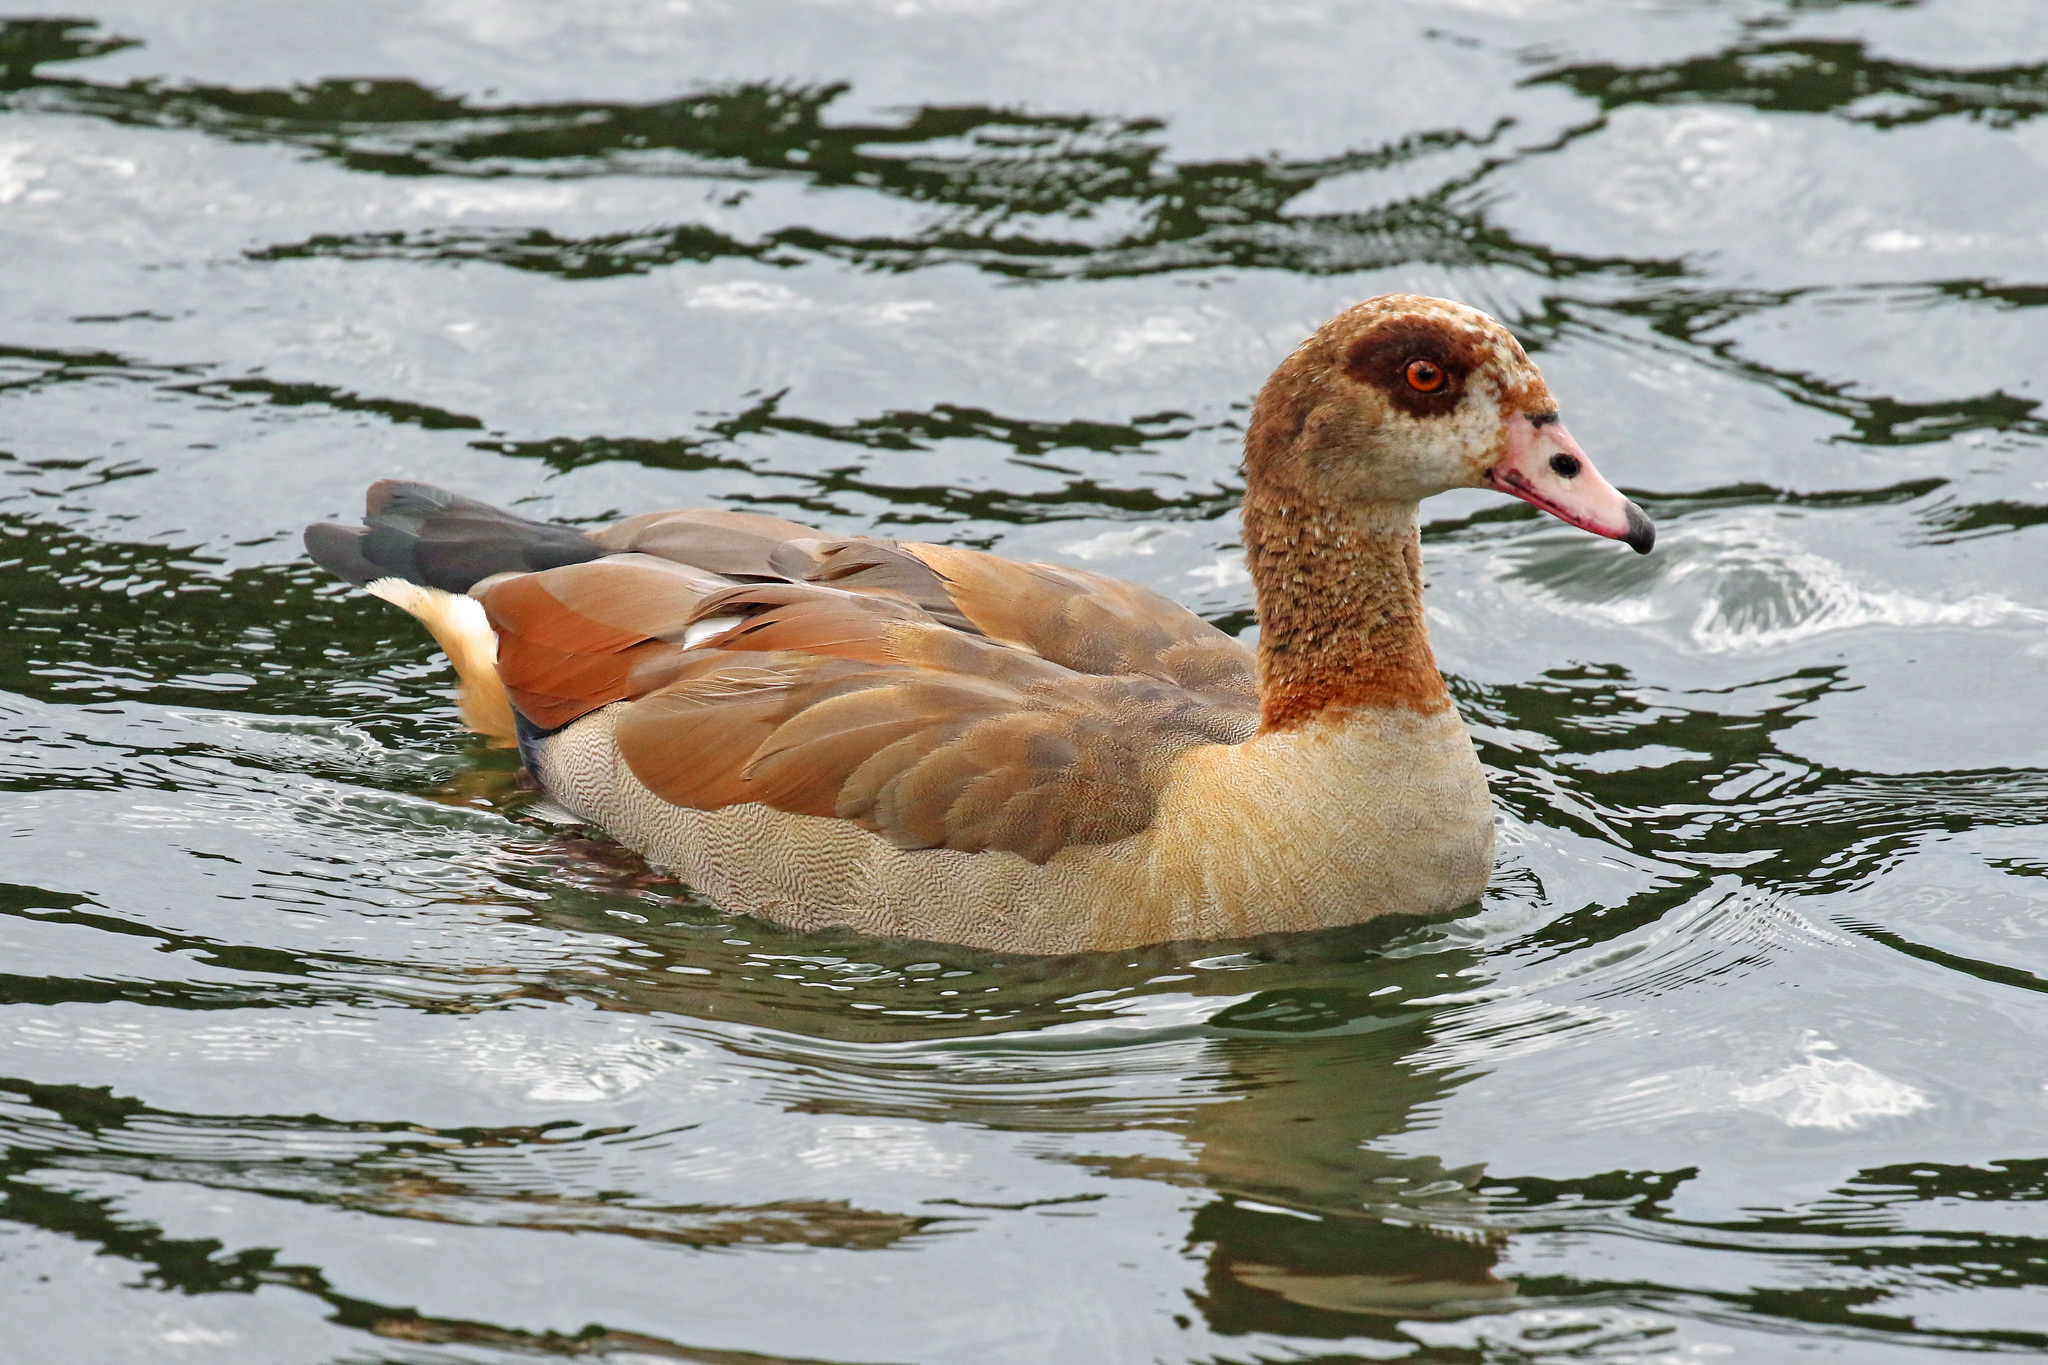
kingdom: Animalia
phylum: Chordata
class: Aves
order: Anseriformes
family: Anatidae
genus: Alopochen
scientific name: Alopochen aegyptiaca
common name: Egyptian goose
